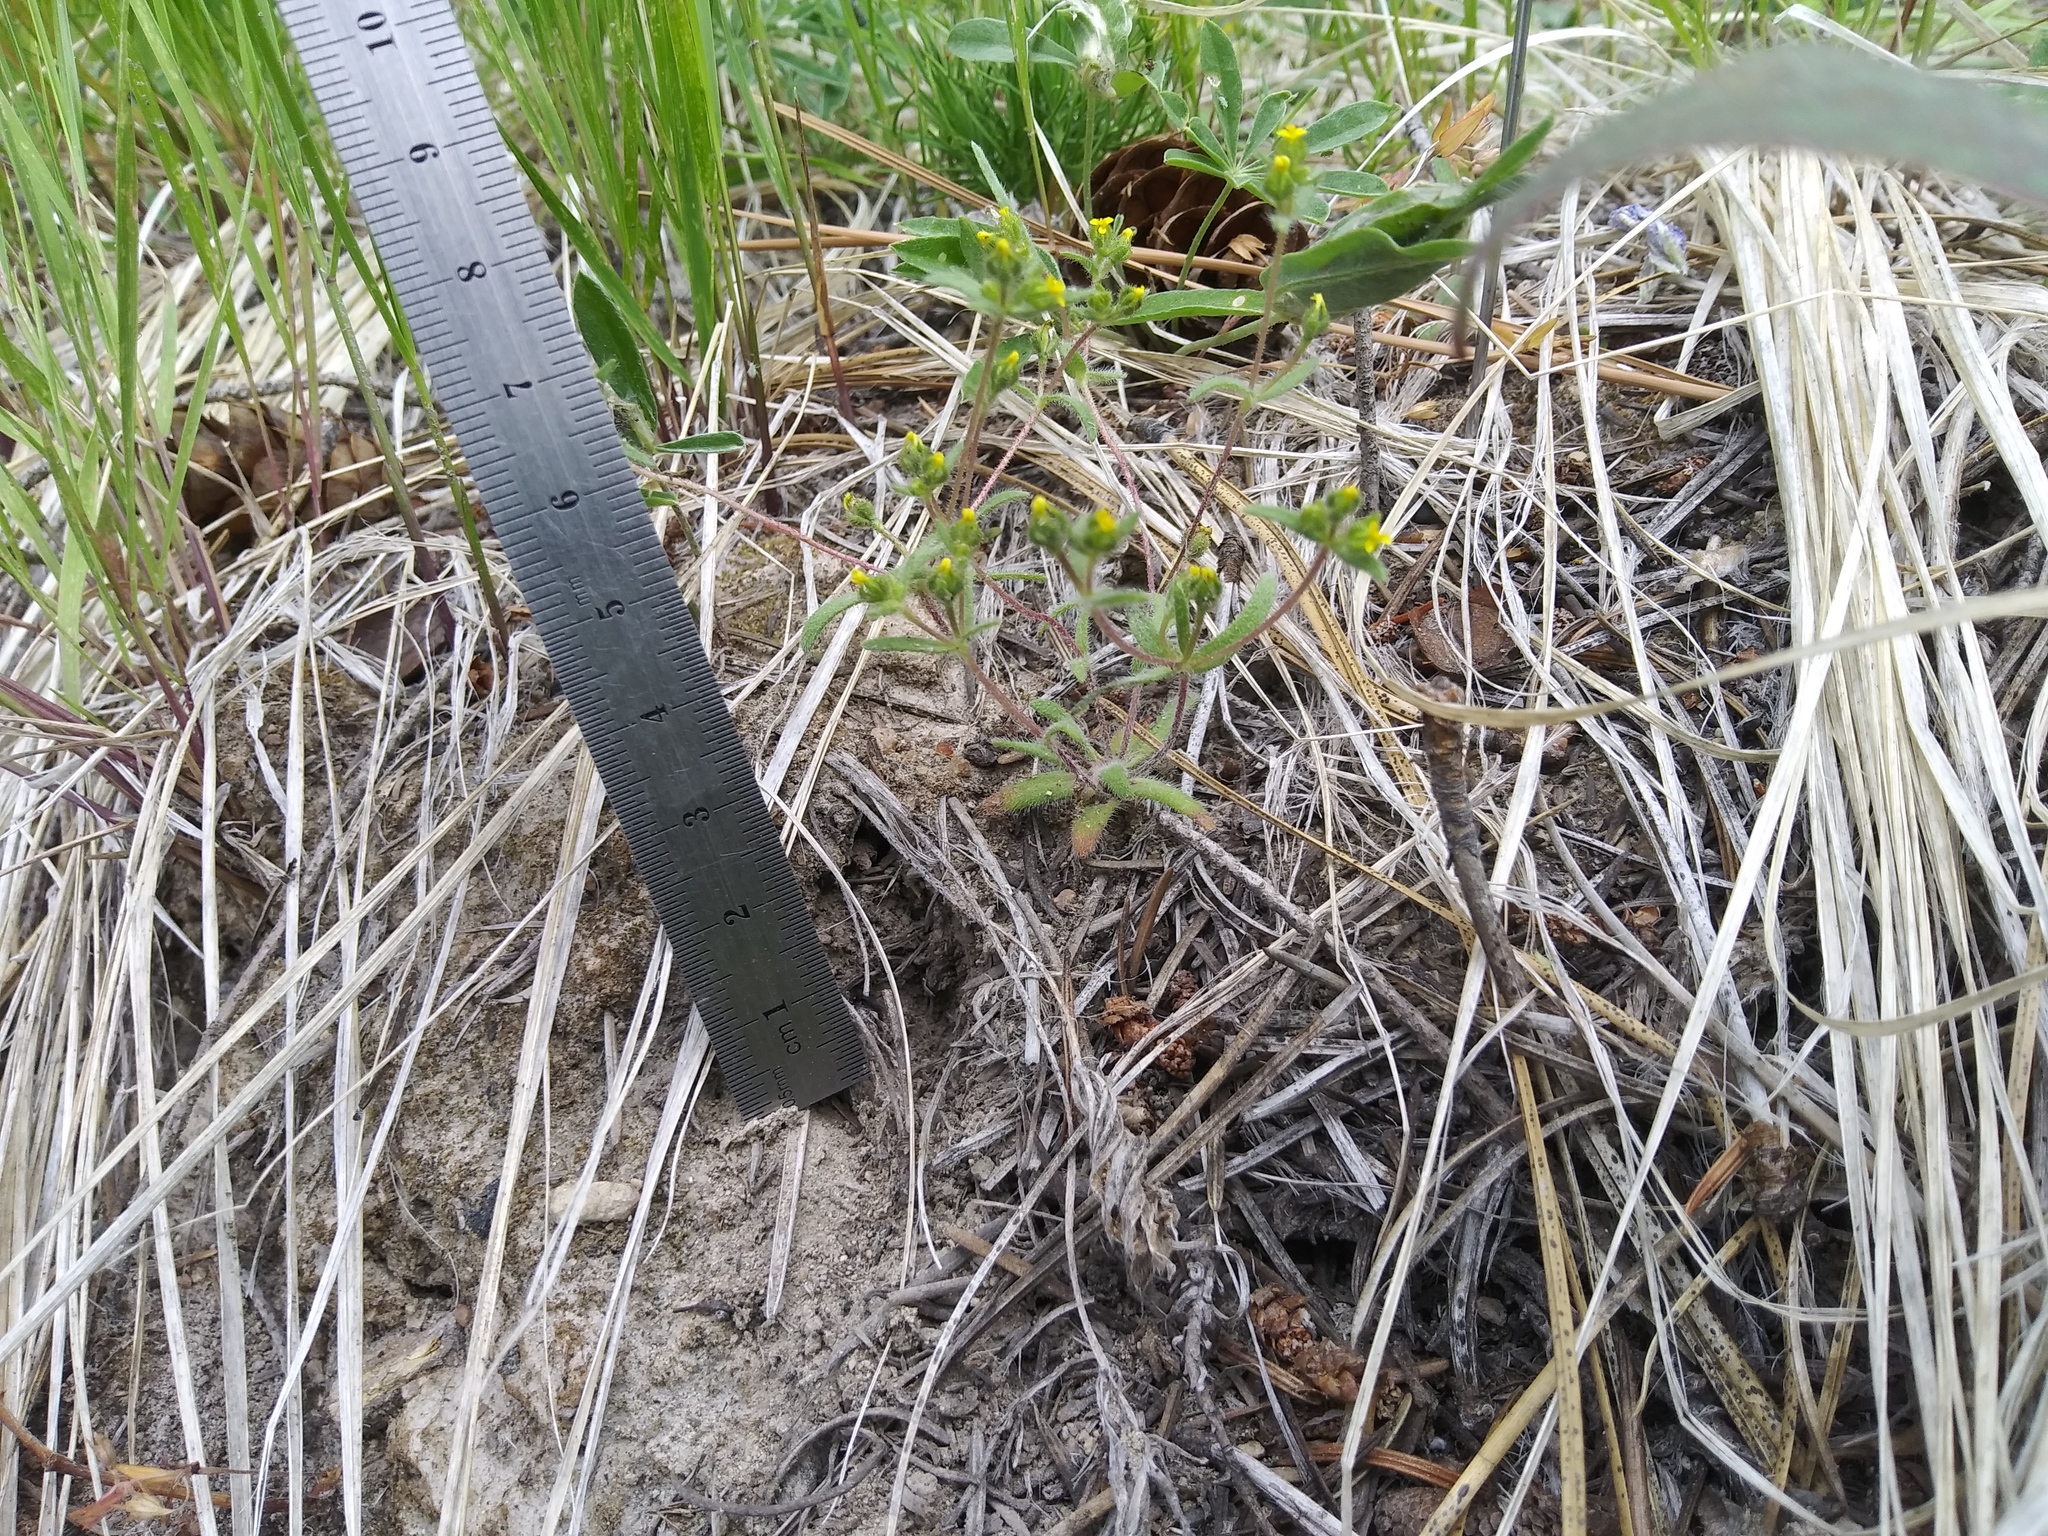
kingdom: Plantae
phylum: Tracheophyta
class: Magnoliopsida
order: Asterales
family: Asteraceae
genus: Hemizonella
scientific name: Hemizonella minima
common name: Opposite-leaved tarweed
